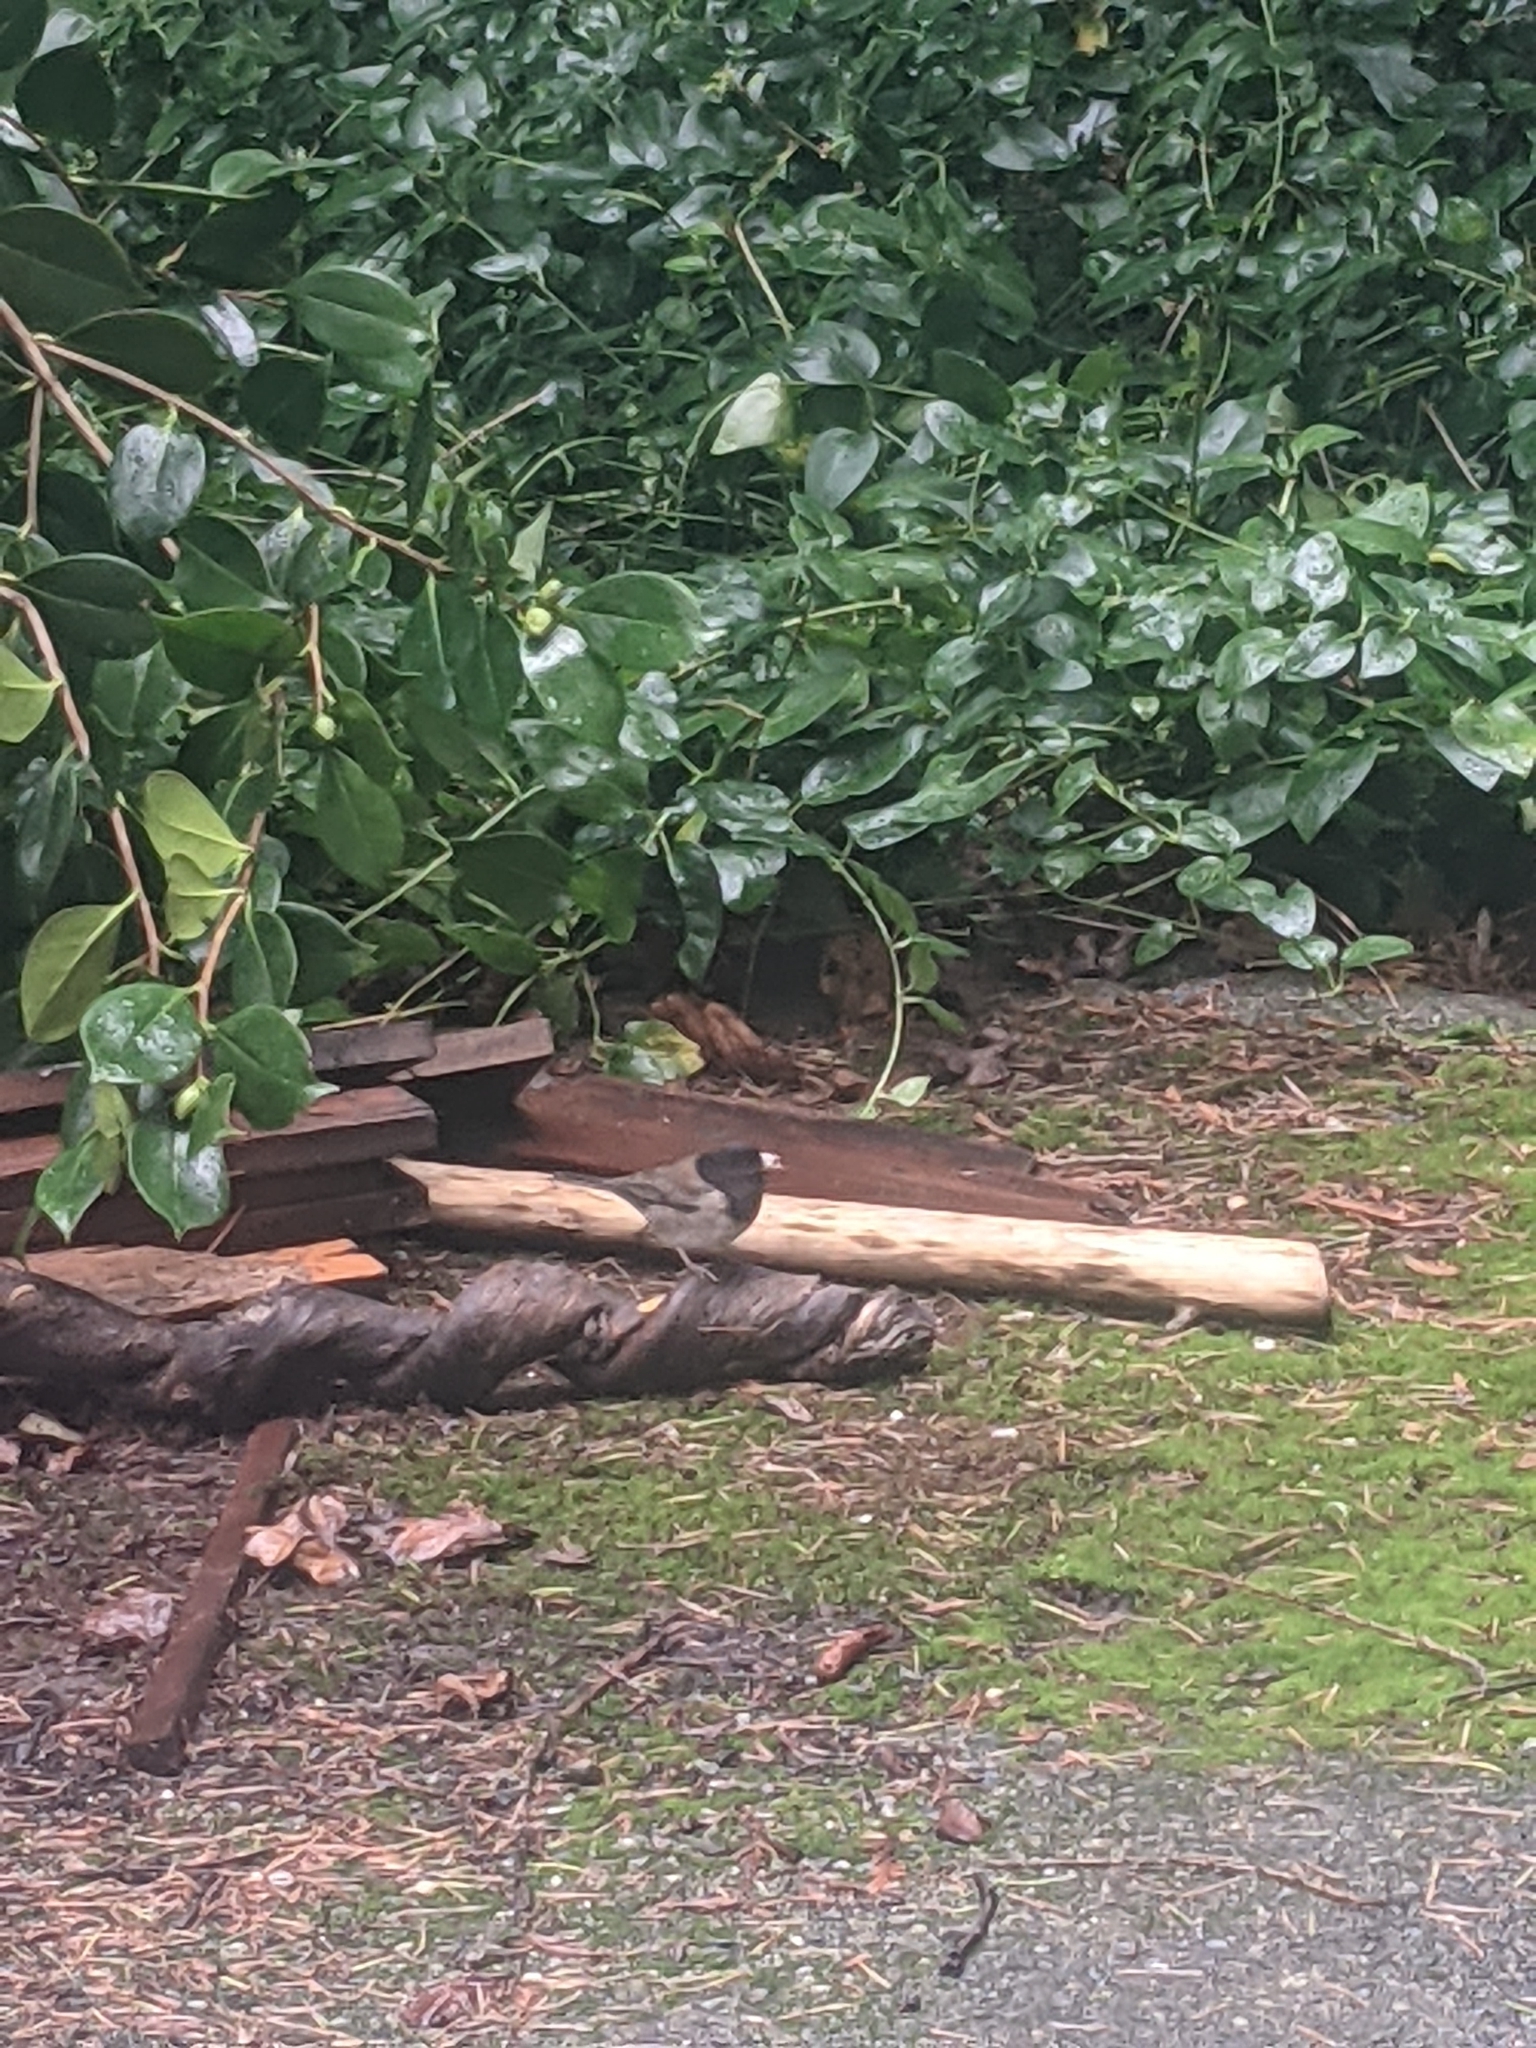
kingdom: Animalia
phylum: Chordata
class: Aves
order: Passeriformes
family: Passerellidae
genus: Junco
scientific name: Junco hyemalis
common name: Dark-eyed junco
